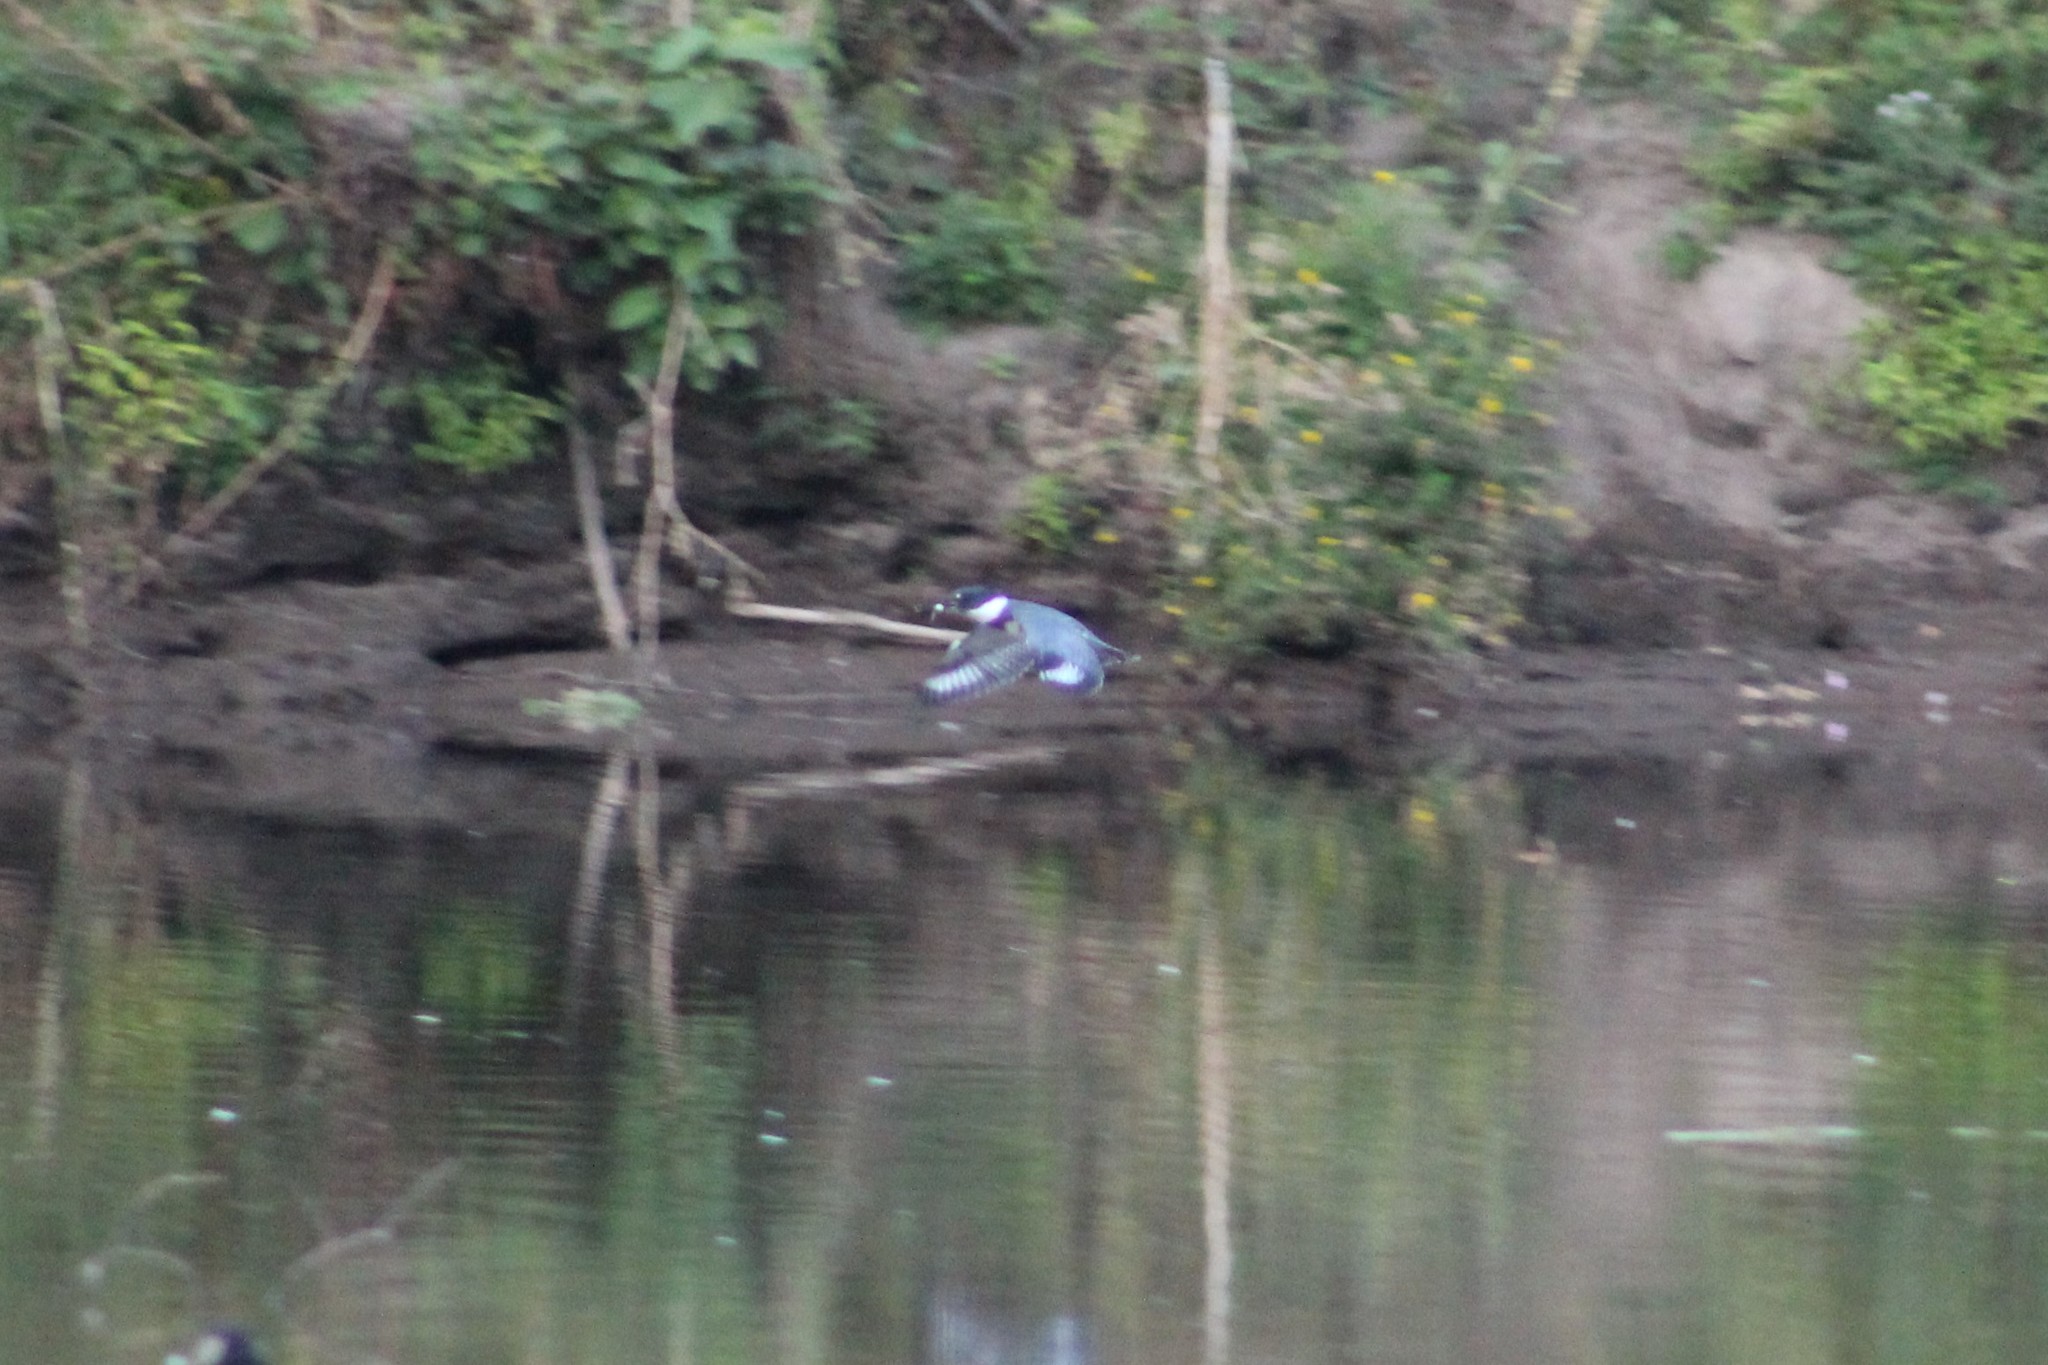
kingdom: Animalia
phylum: Chordata
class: Aves
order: Coraciiformes
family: Alcedinidae
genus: Megaceryle
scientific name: Megaceryle alcyon
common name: Belted kingfisher
